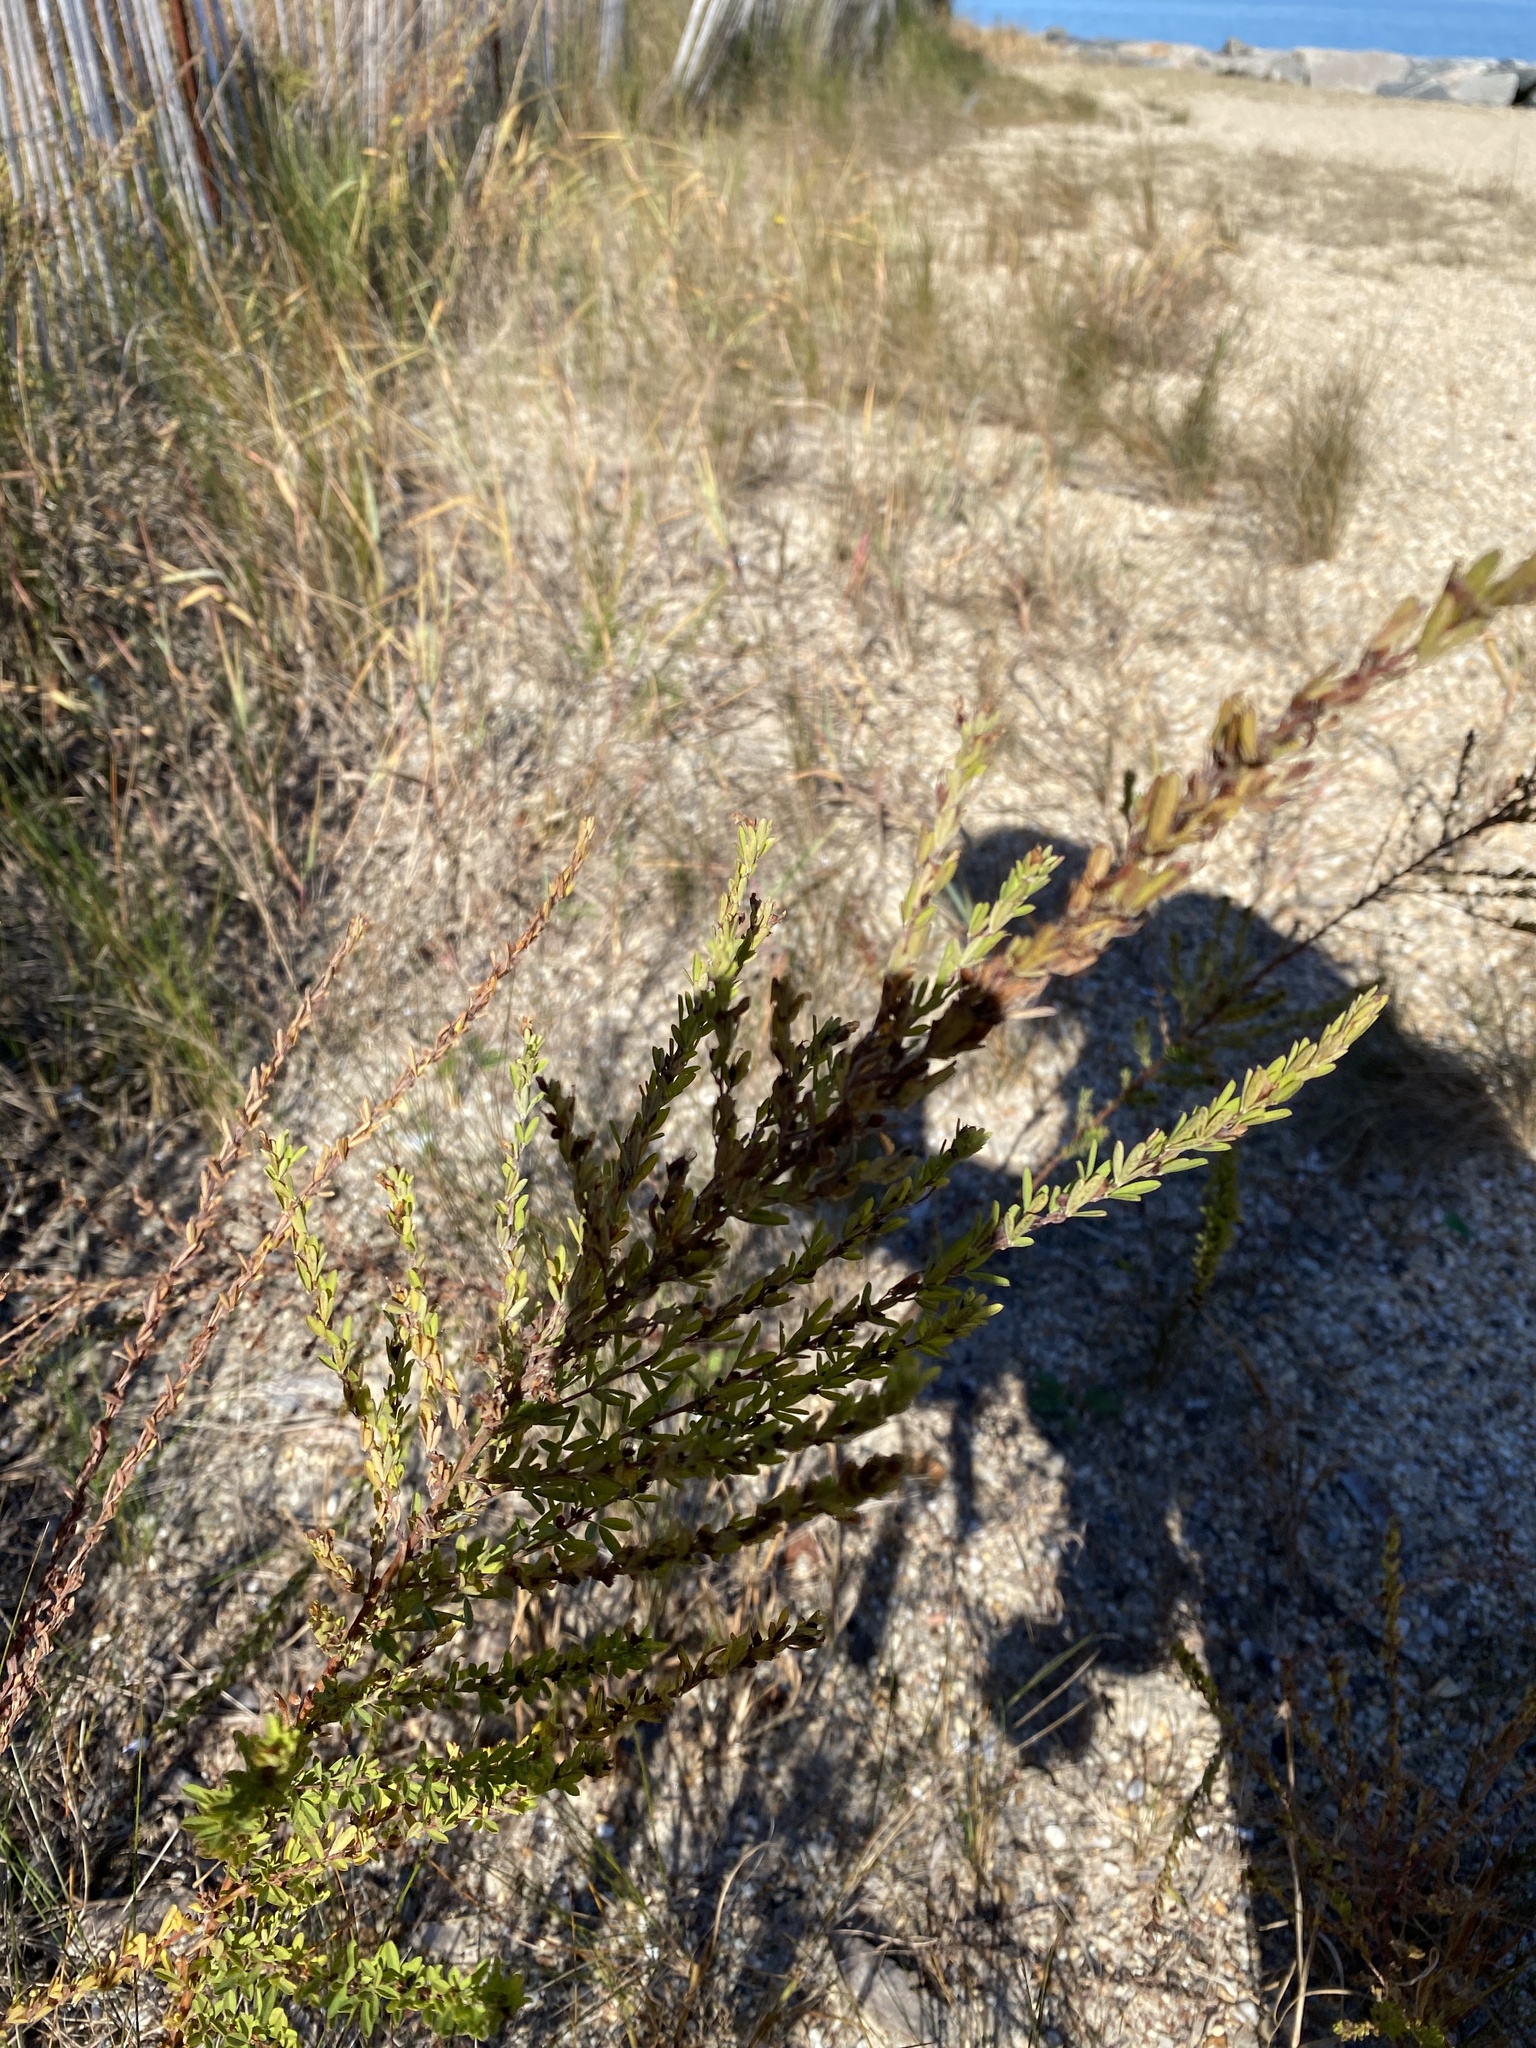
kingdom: Plantae
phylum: Tracheophyta
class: Magnoliopsida
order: Fabales
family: Fabaceae
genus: Lespedeza
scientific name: Lespedeza cuneata
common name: Chinese bush-clover
